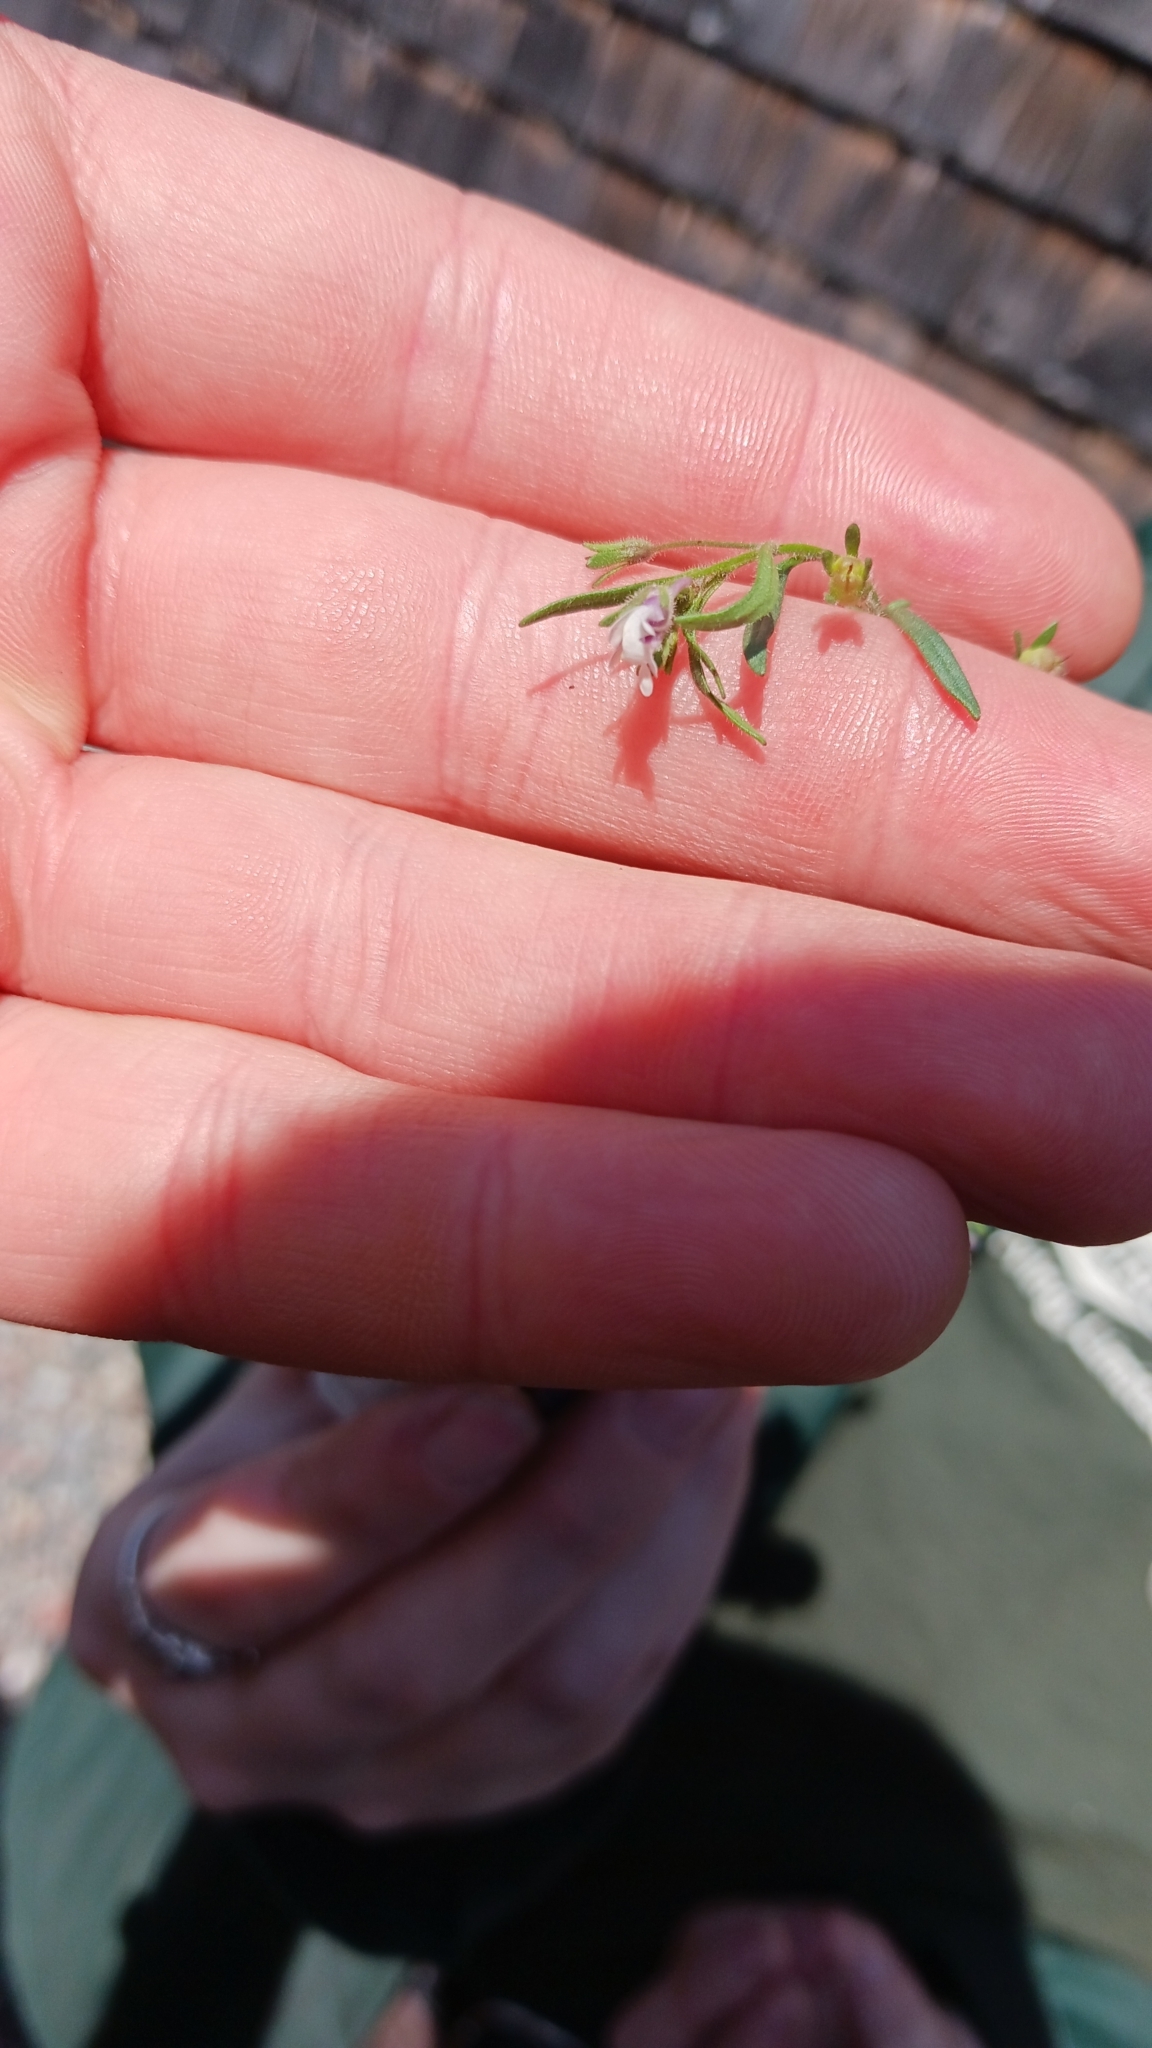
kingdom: Plantae
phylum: Tracheophyta
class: Magnoliopsida
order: Lamiales
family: Plantaginaceae
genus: Chaenorhinum
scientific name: Chaenorhinum minus
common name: Dwarf snapdragon
